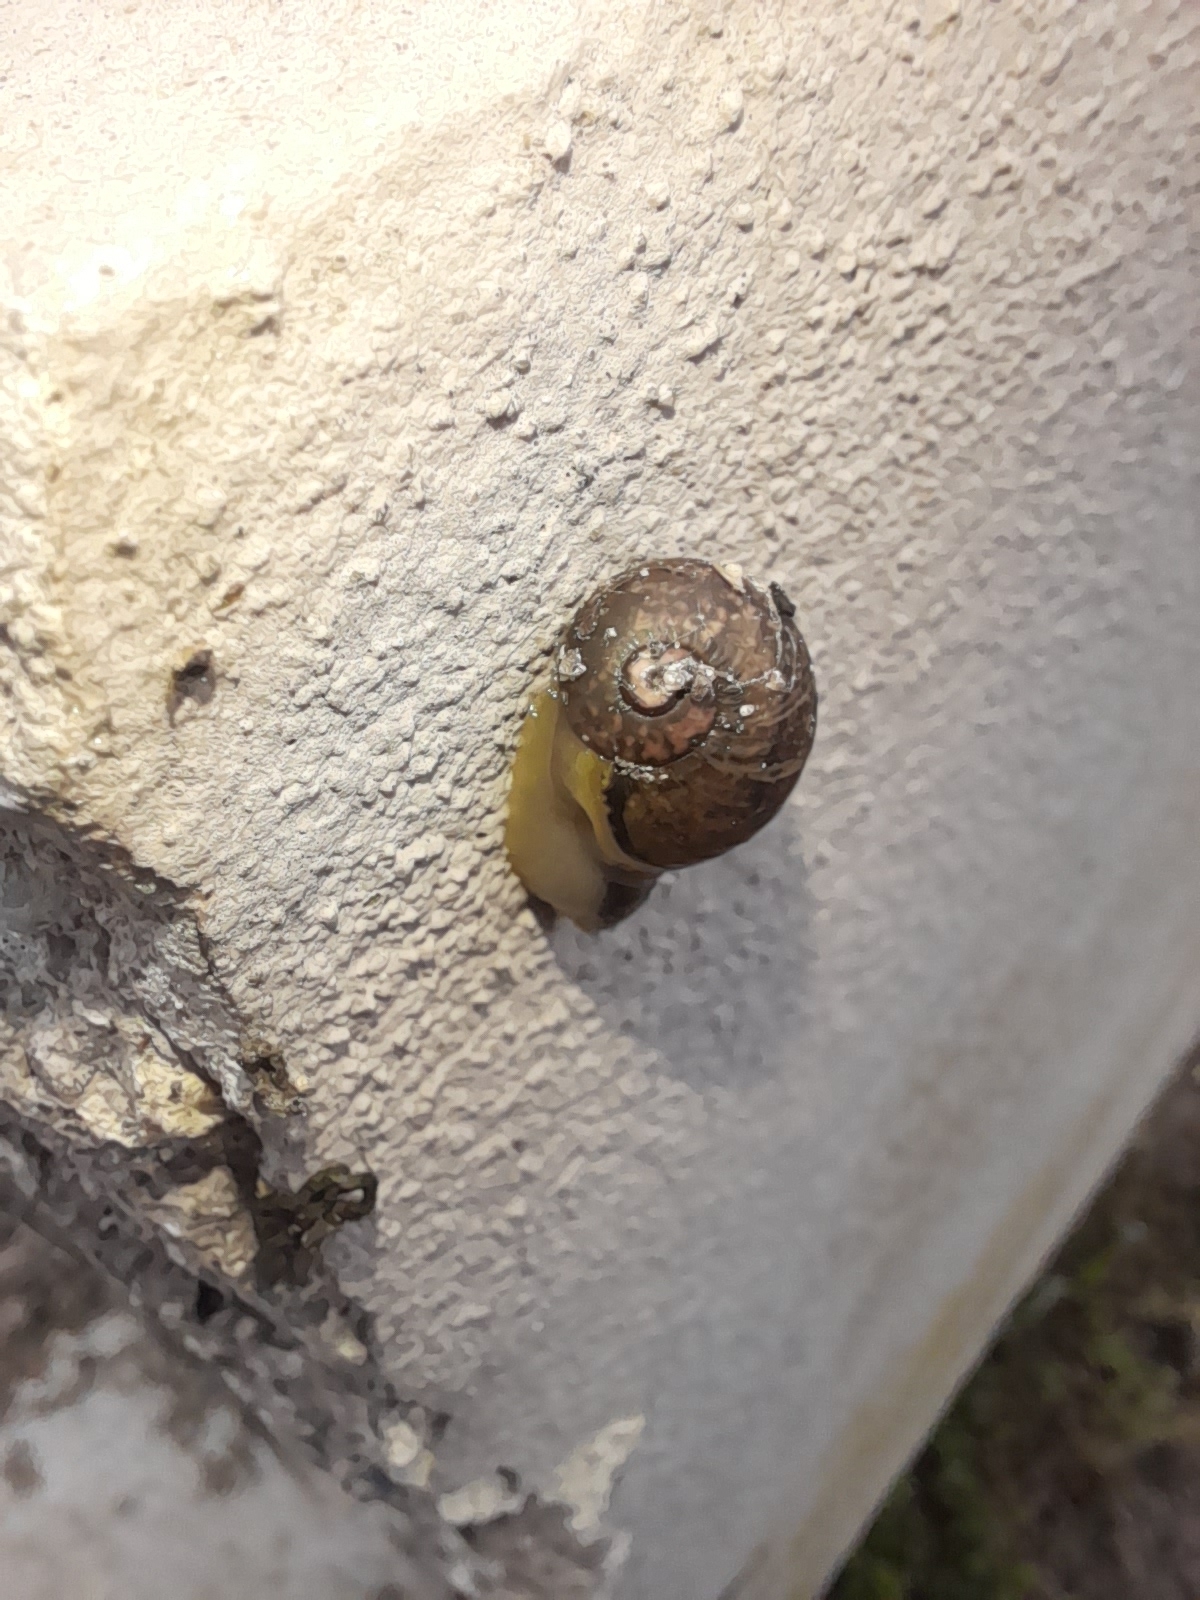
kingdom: Animalia
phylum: Mollusca
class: Gastropoda
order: Stylommatophora
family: Helicidae
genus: Cantareus
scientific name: Cantareus apertus
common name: Green gardensnail
